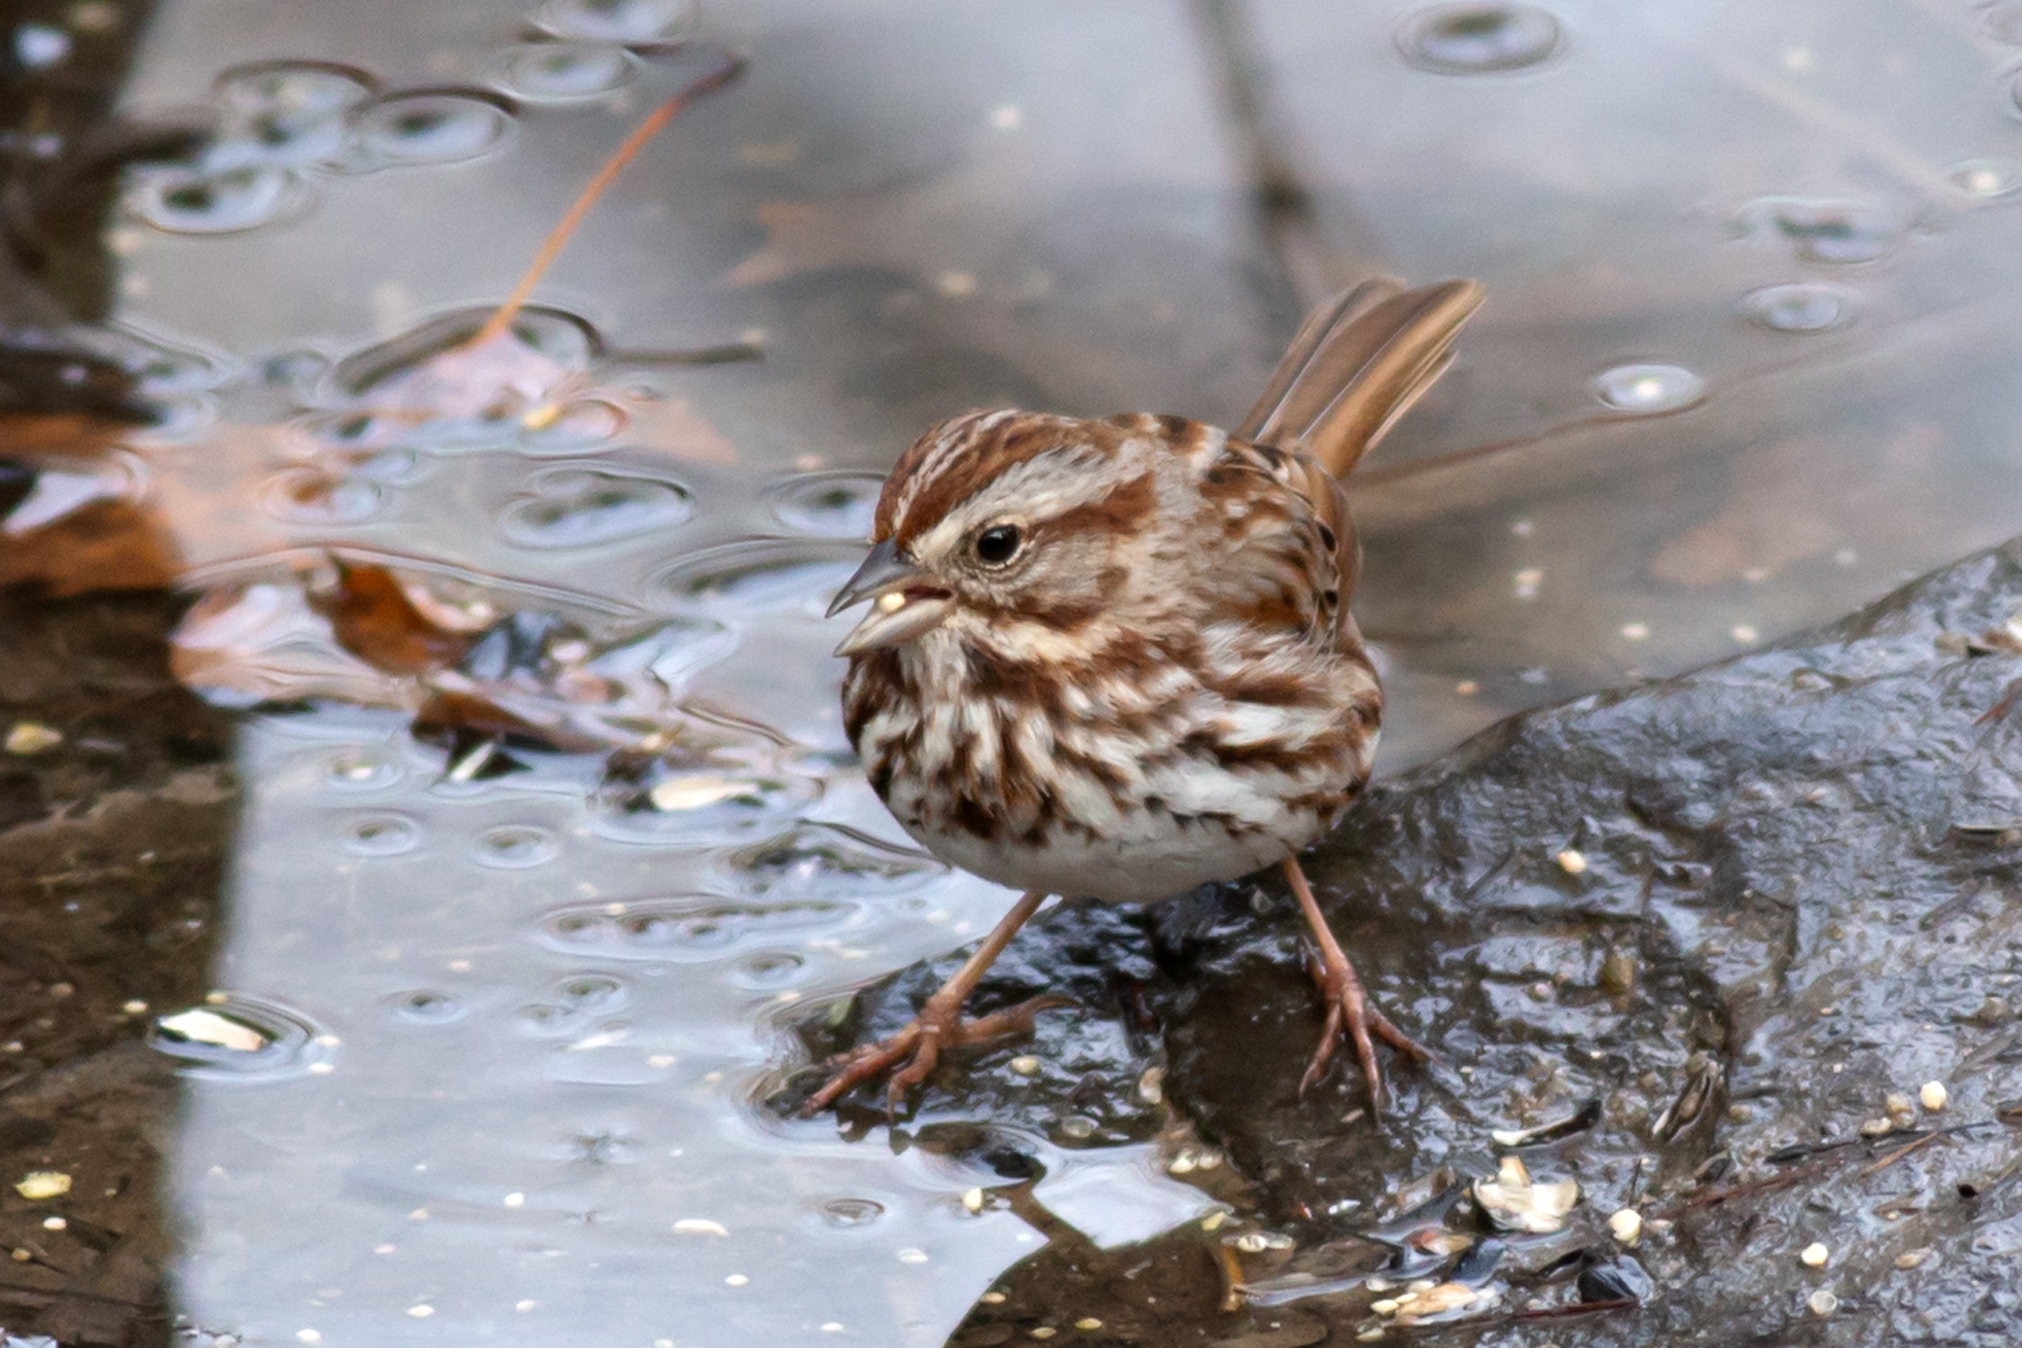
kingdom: Animalia
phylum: Chordata
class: Aves
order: Passeriformes
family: Passerellidae
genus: Melospiza
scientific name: Melospiza melodia
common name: Song sparrow
